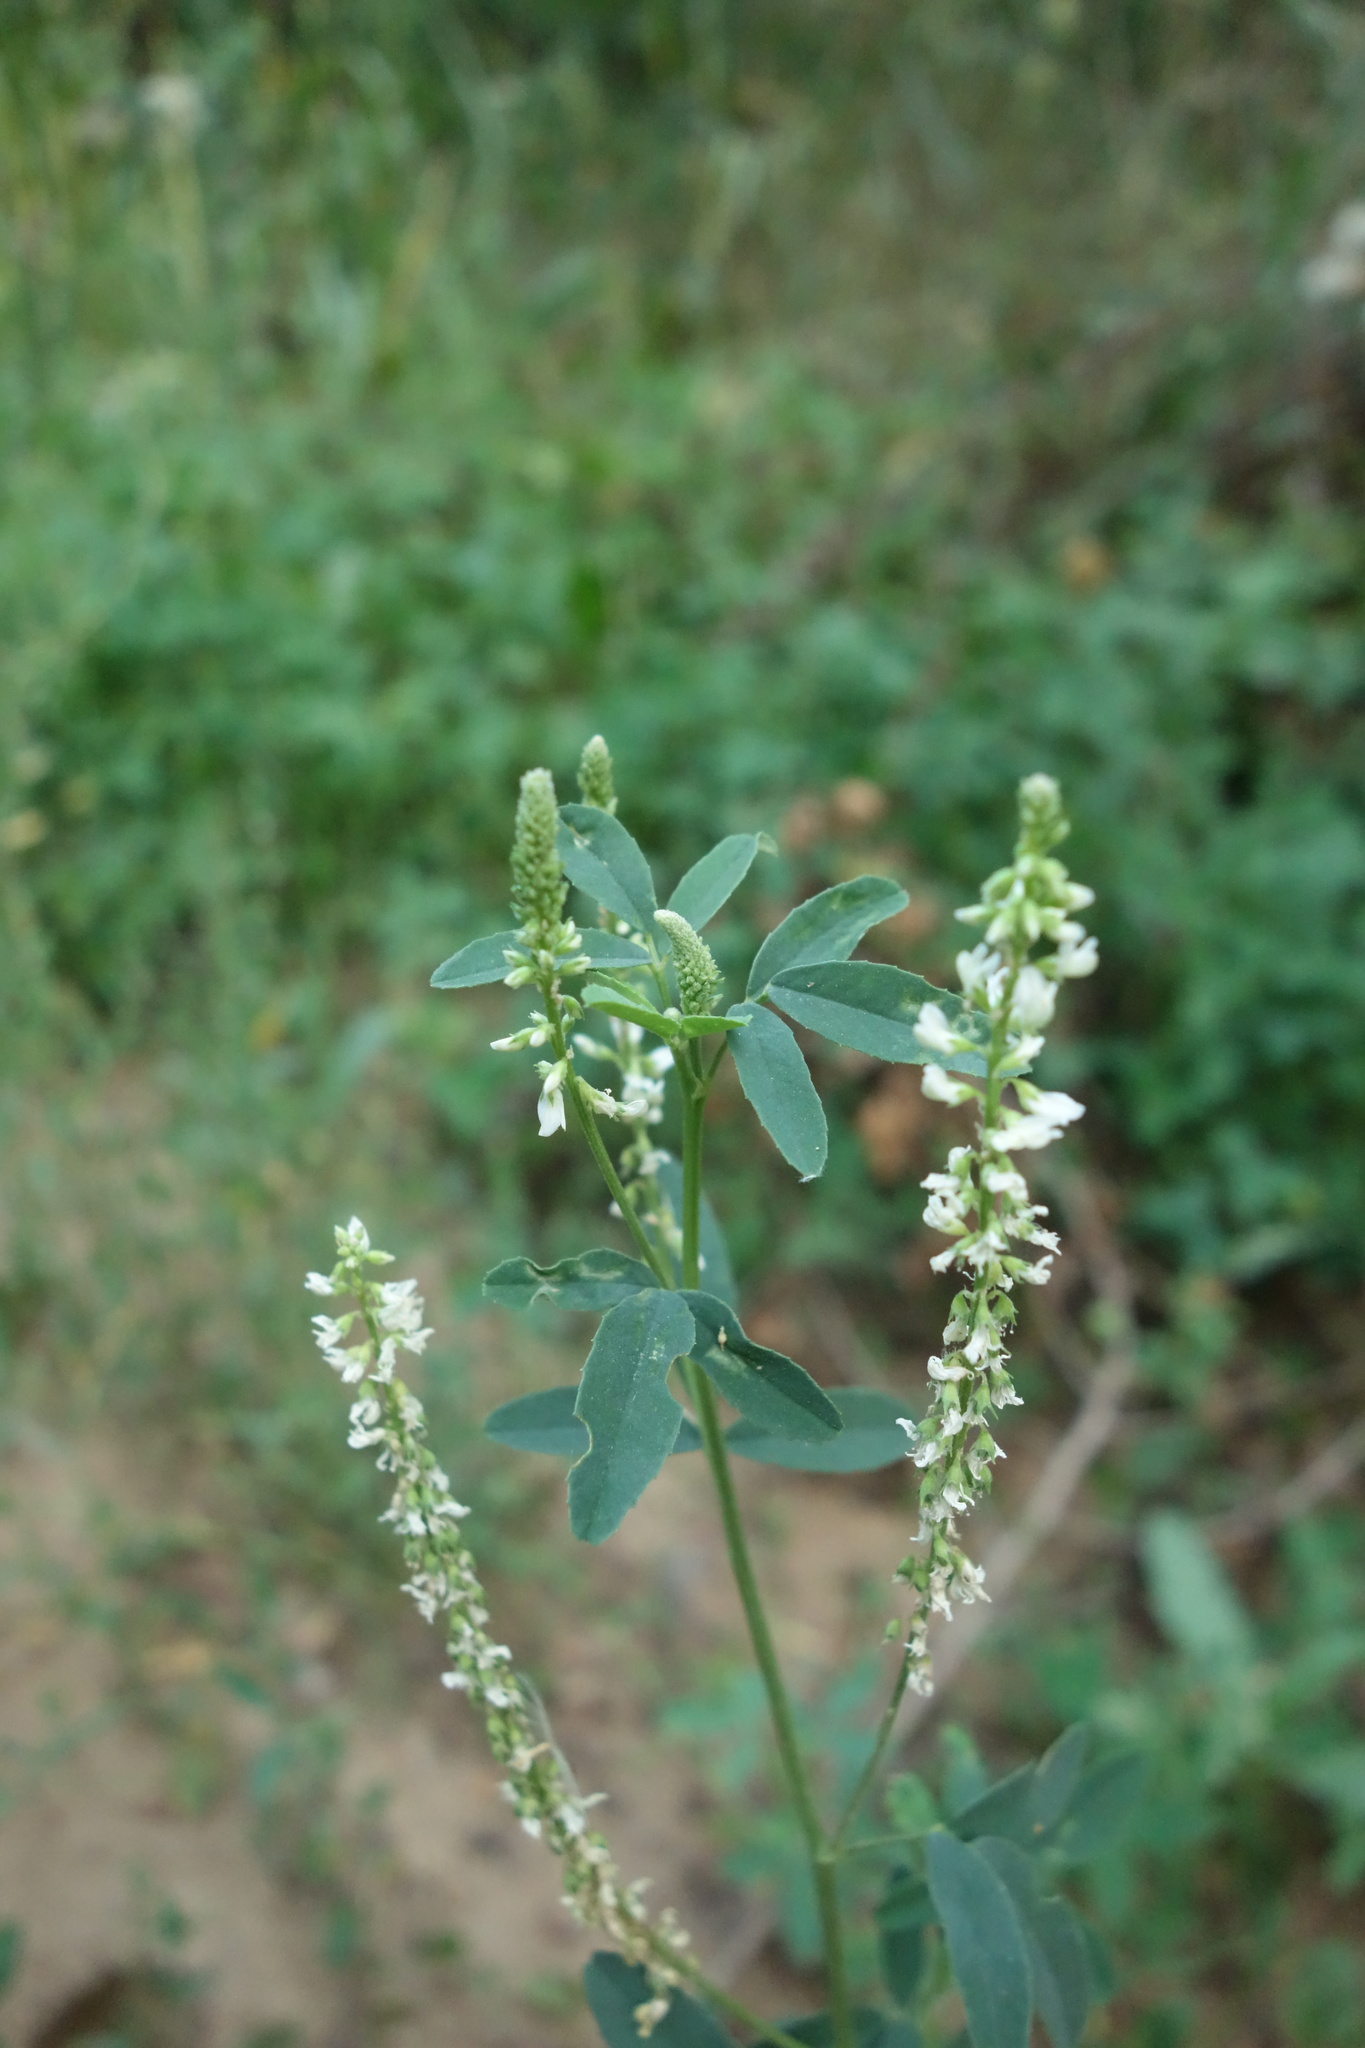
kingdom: Plantae
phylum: Tracheophyta
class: Magnoliopsida
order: Fabales
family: Fabaceae
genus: Melilotus
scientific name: Melilotus albus
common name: White melilot
